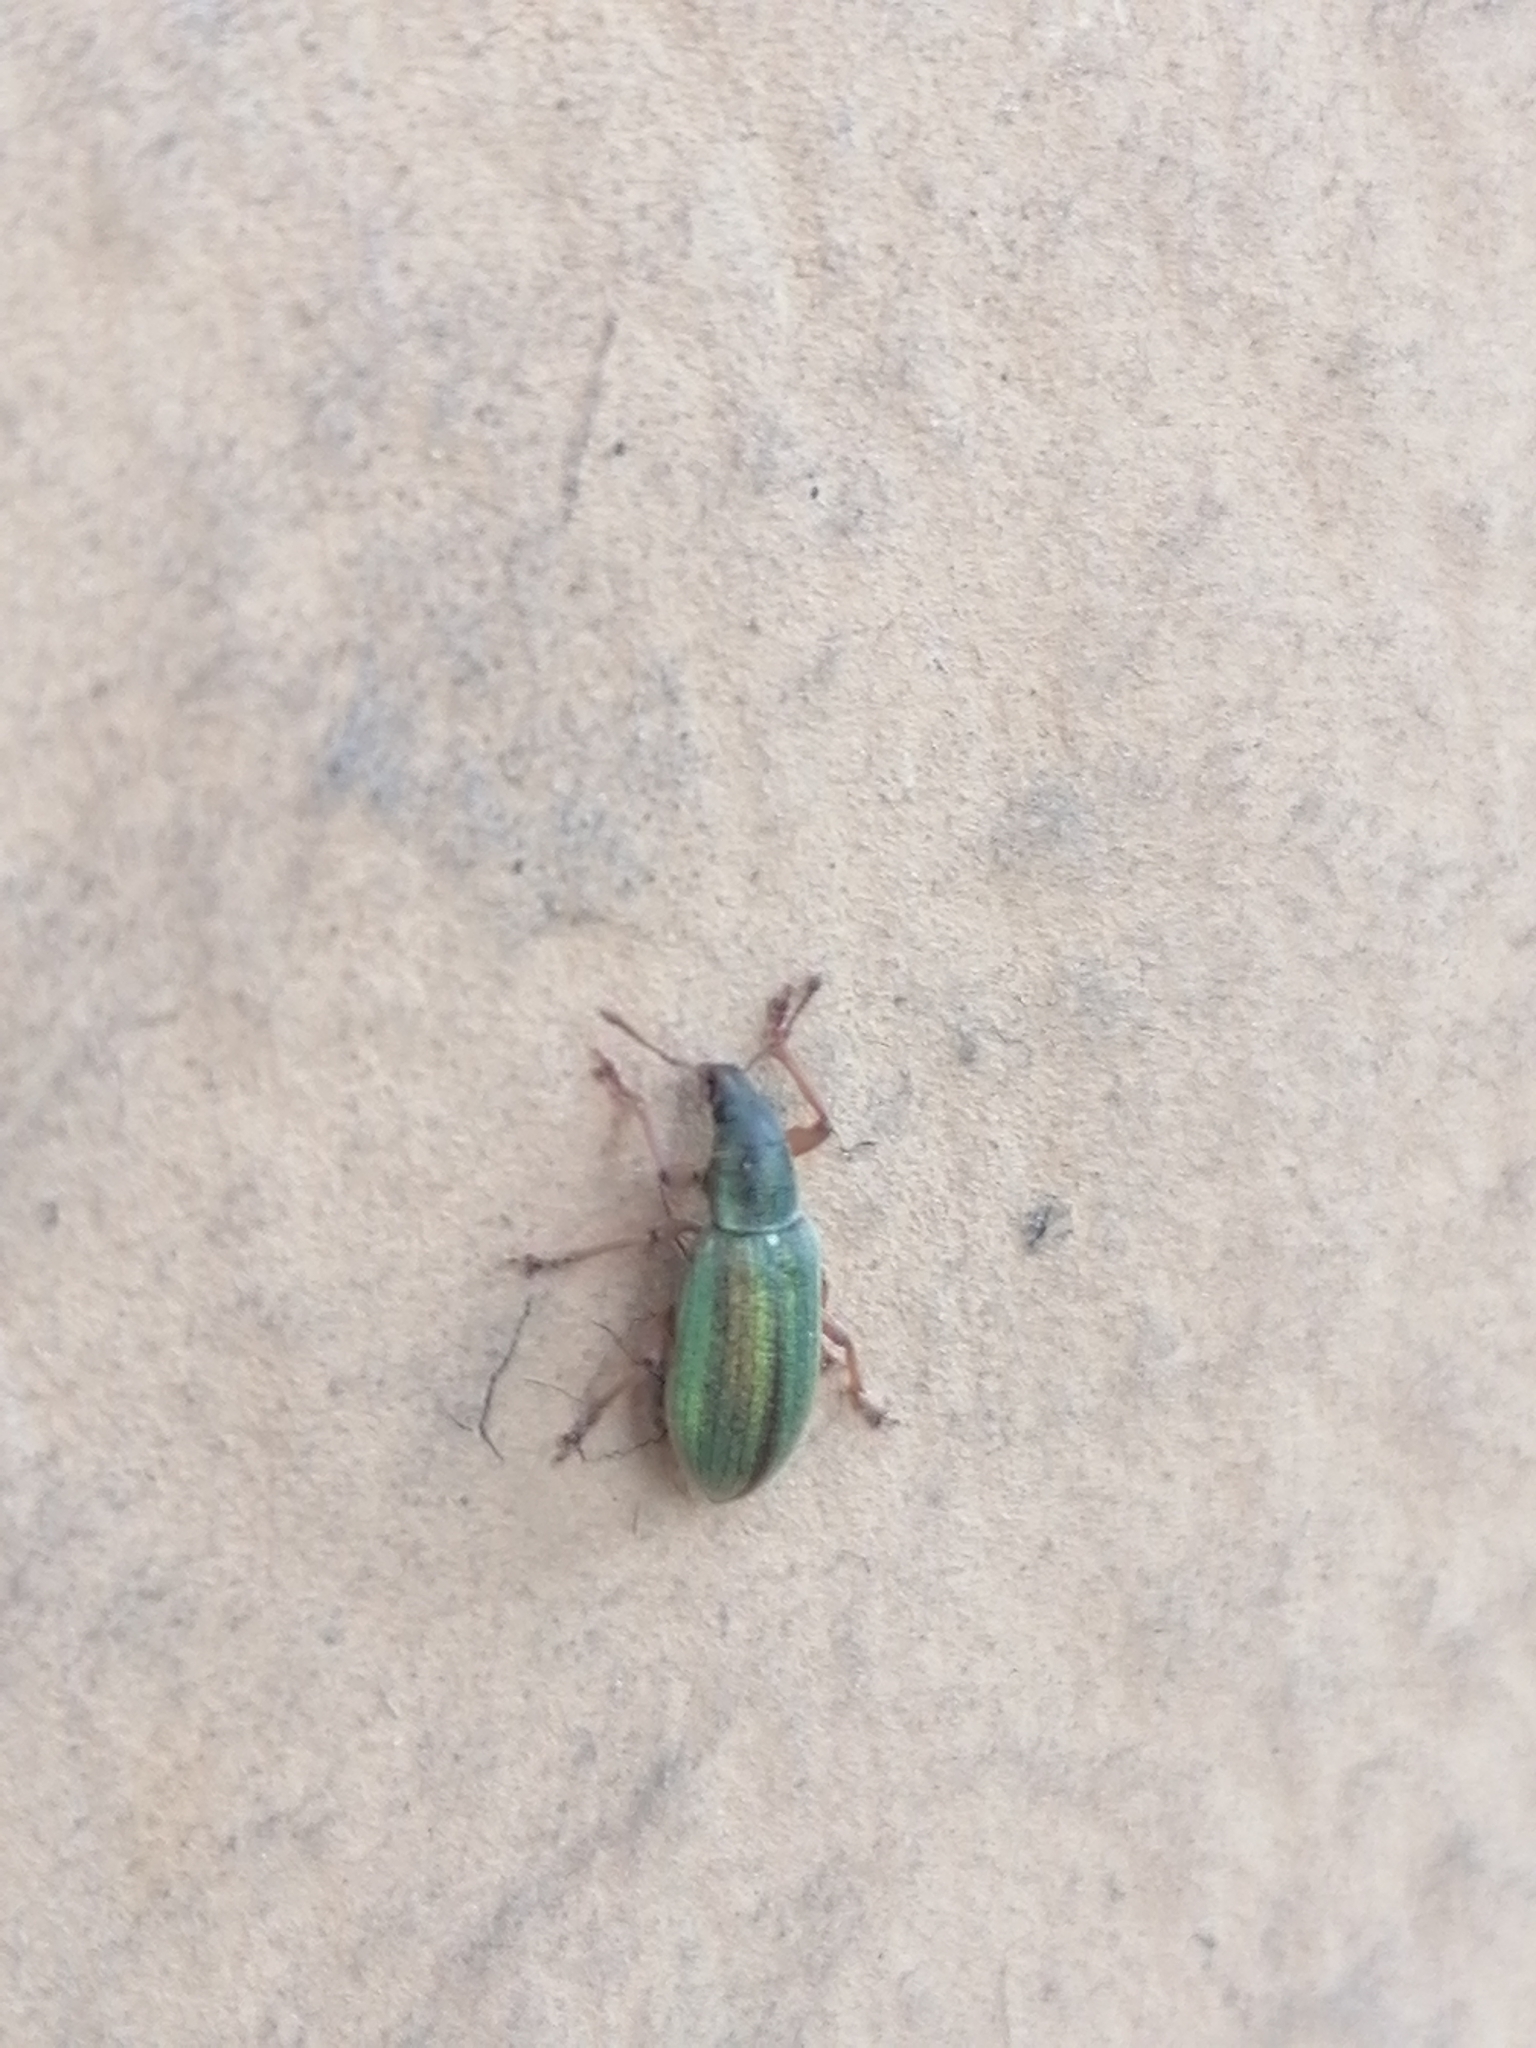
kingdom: Animalia
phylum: Arthropoda
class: Insecta
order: Coleoptera
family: Curculionidae
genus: Polydrusus
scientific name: Polydrusus viridinitens
